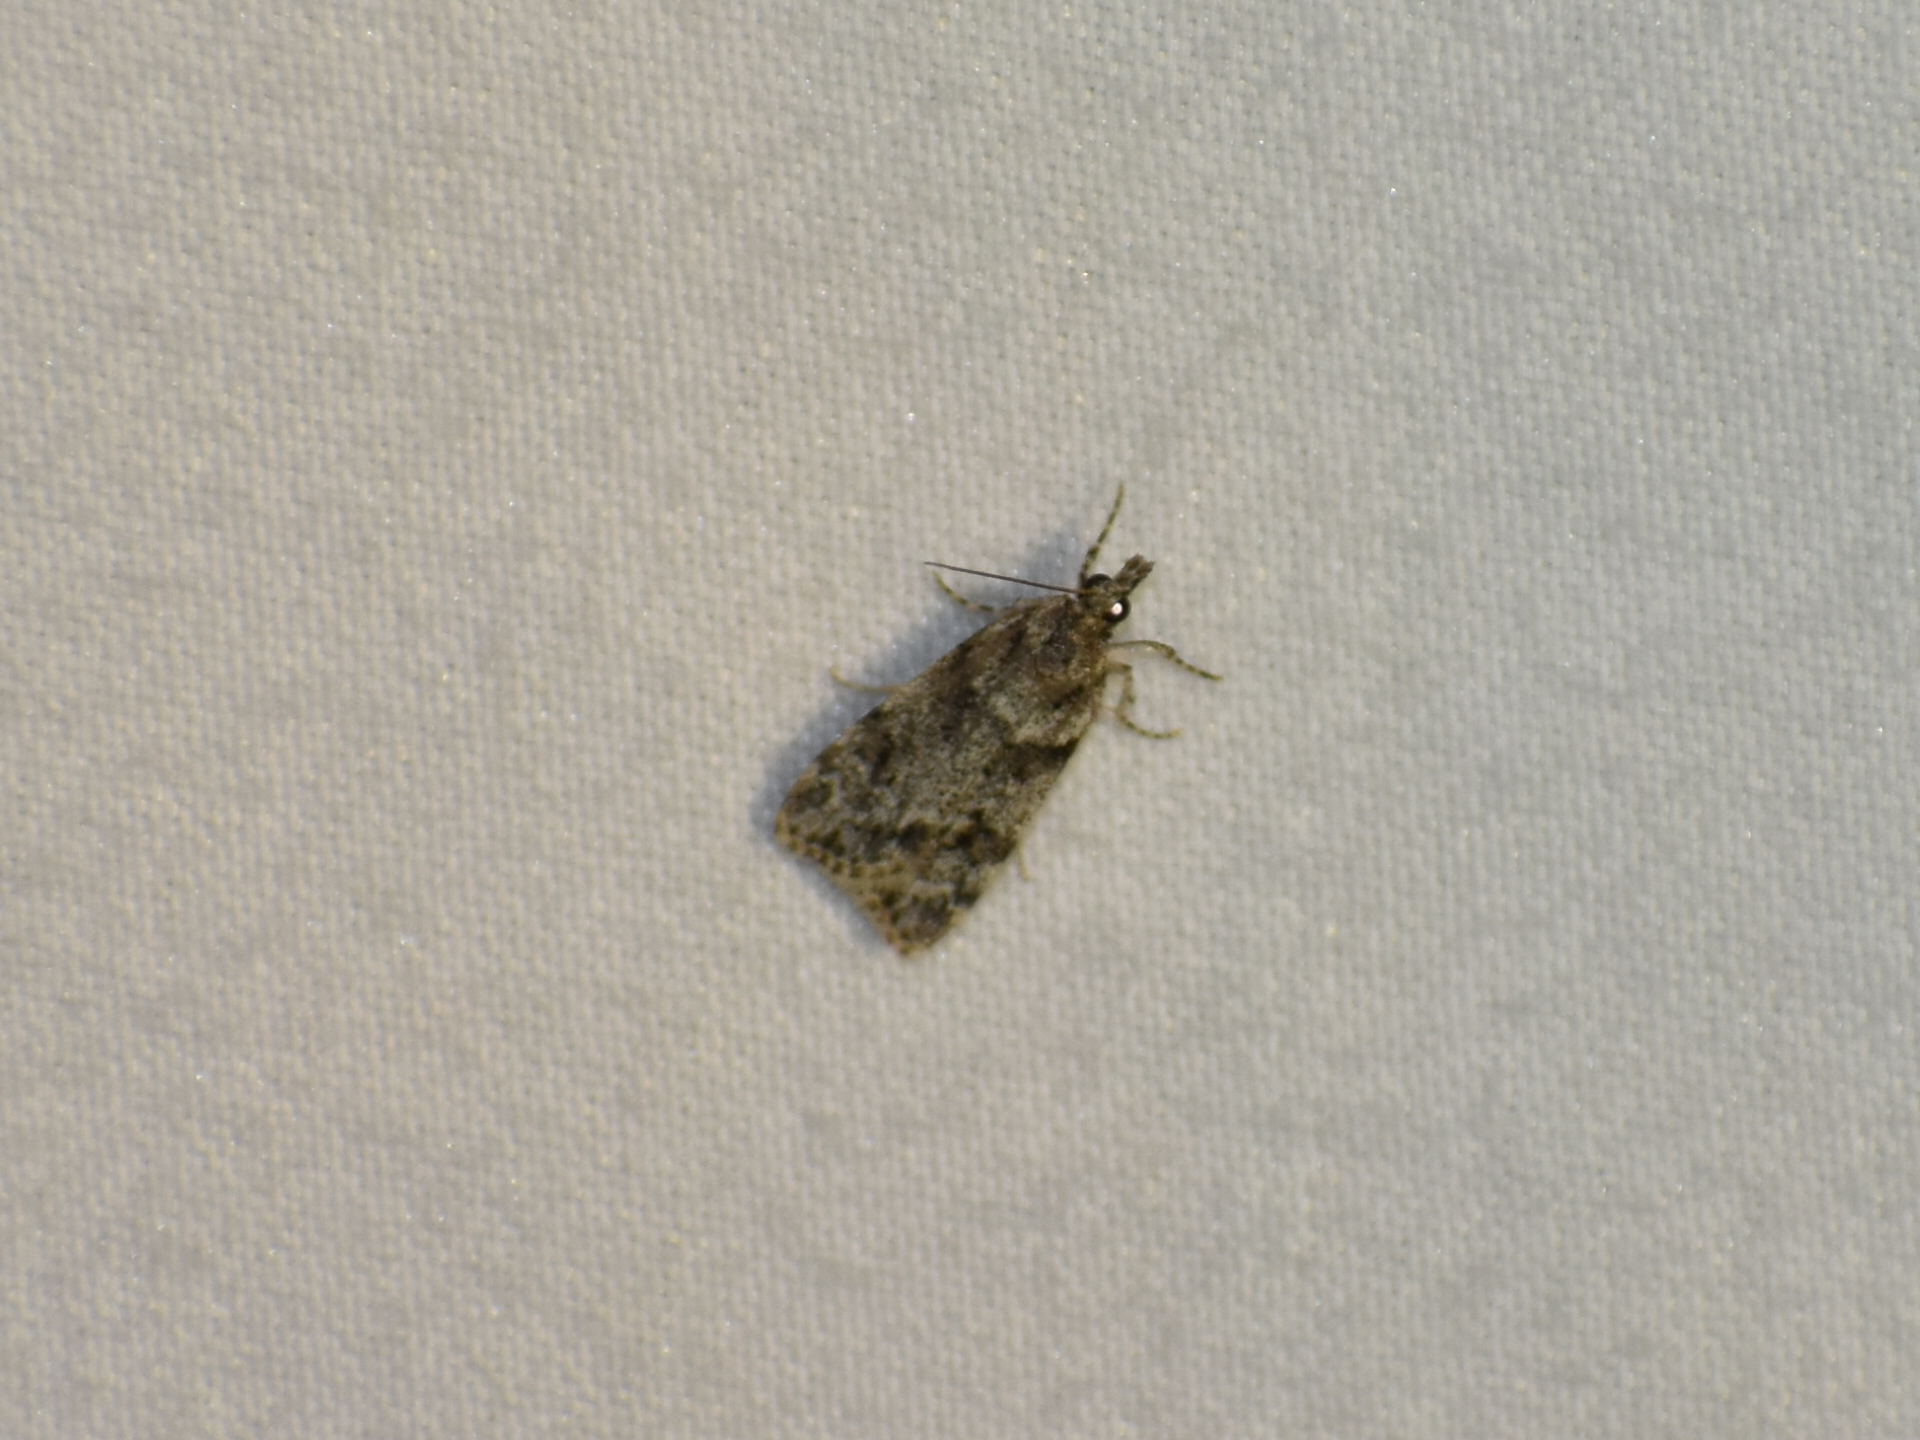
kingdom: Animalia
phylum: Arthropoda
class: Insecta
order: Lepidoptera
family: Crambidae
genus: Scoparia
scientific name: Scoparia biplagialis
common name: Double-striped scoparia moth
